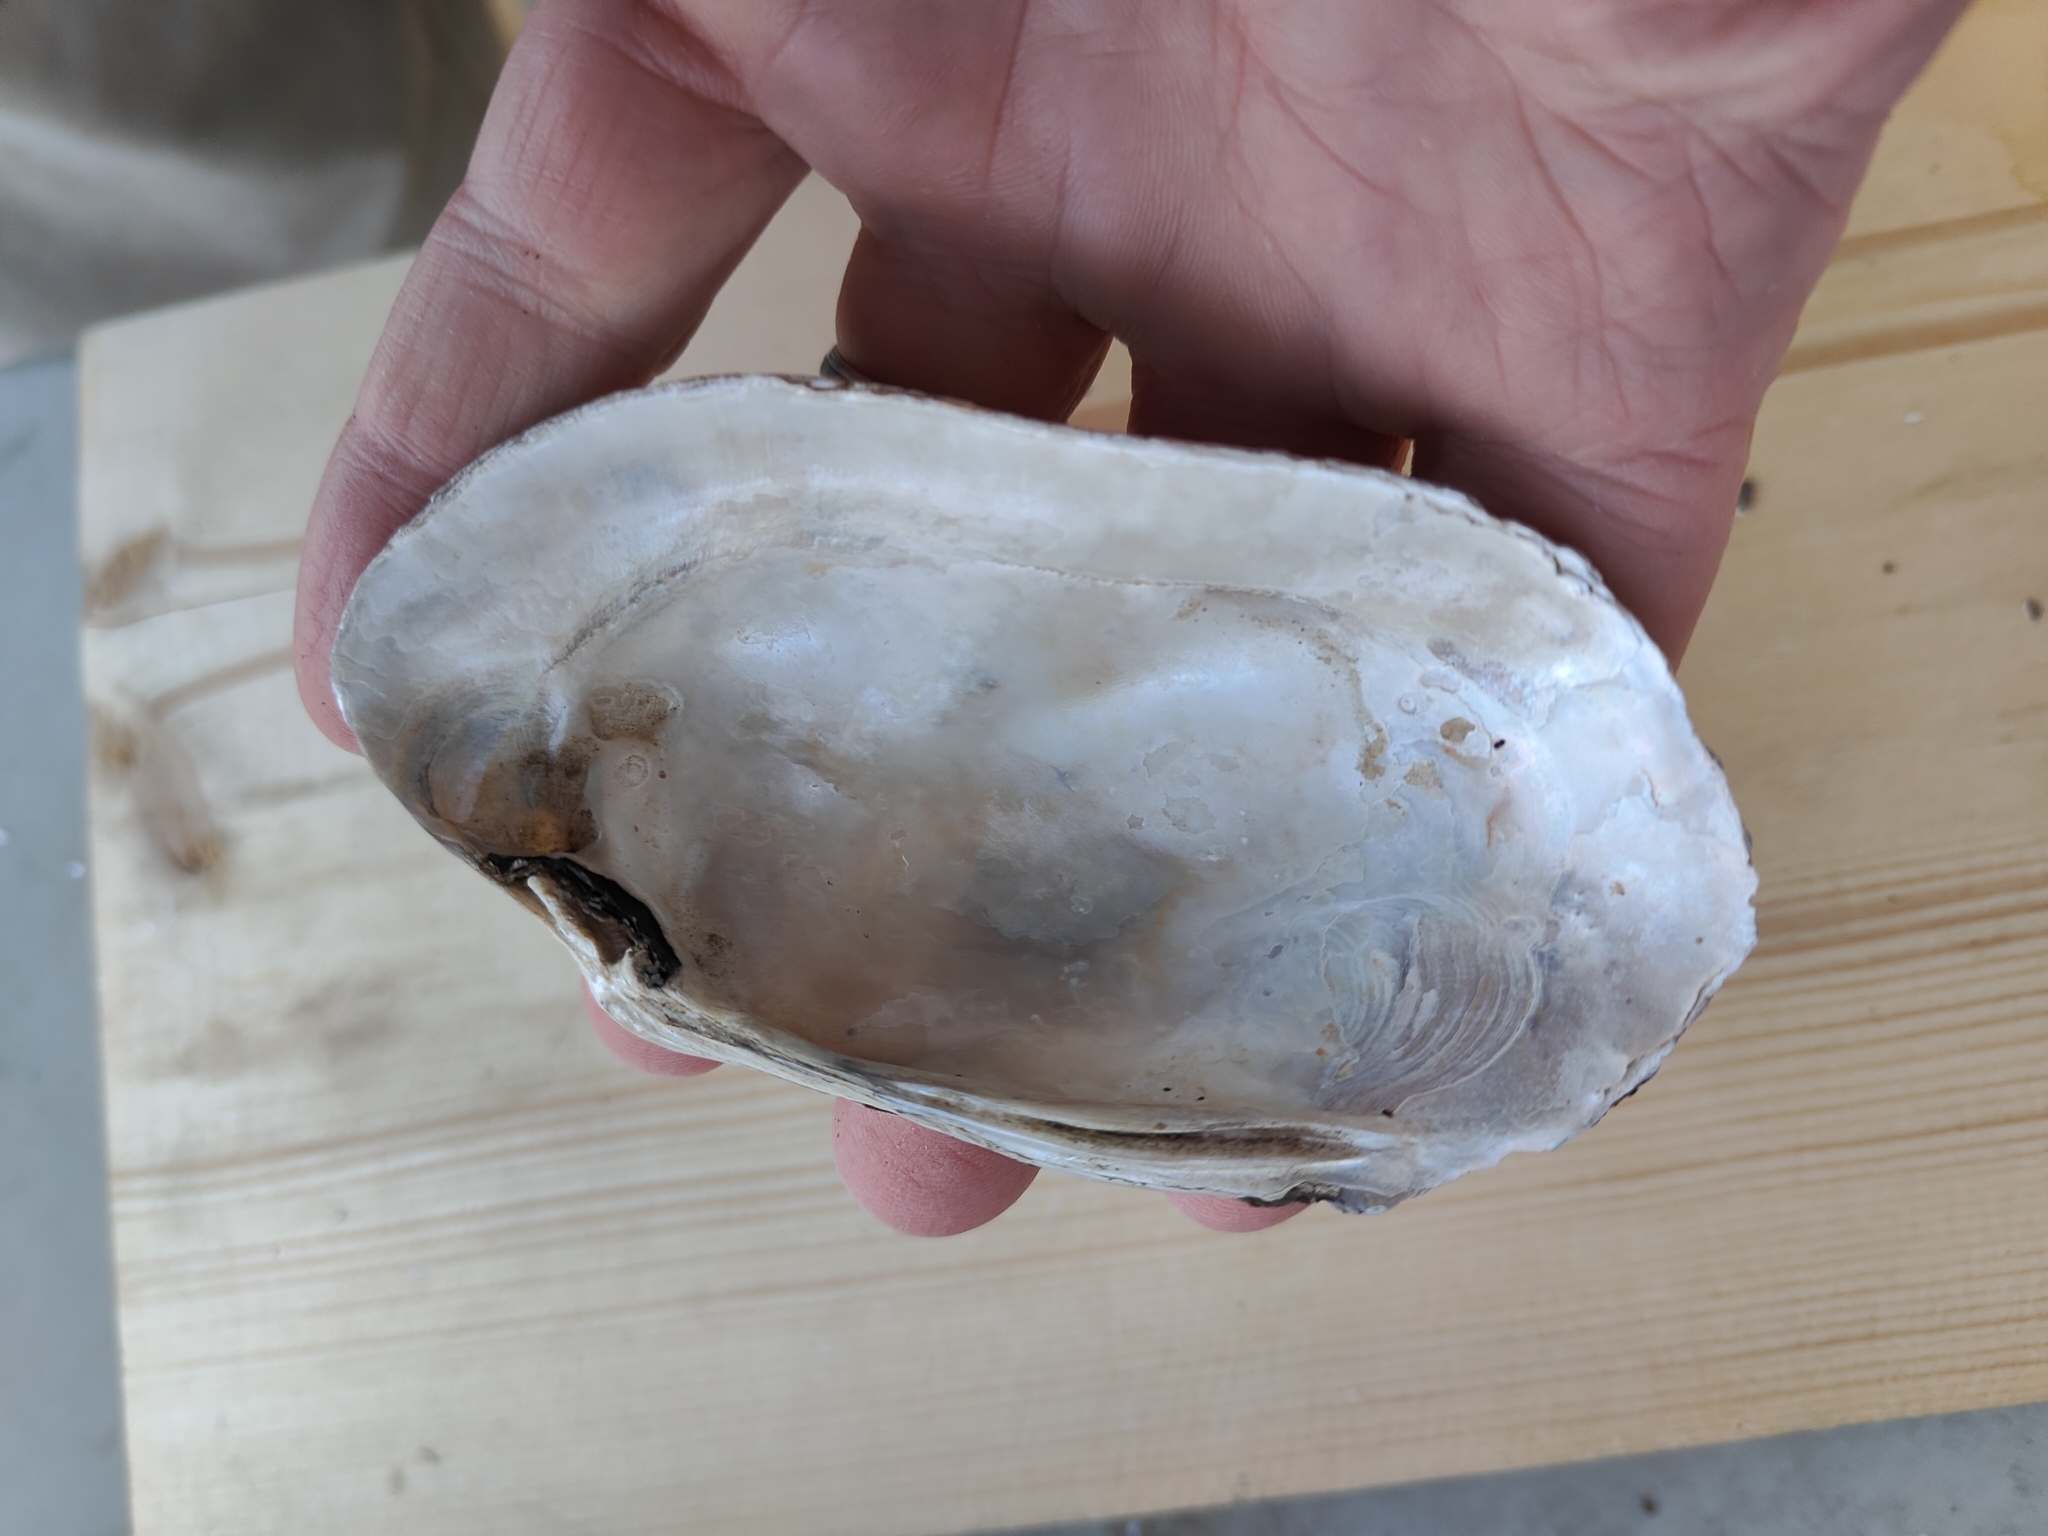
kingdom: Animalia
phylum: Mollusca
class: Bivalvia
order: Unionida
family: Unionidae
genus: Lampsilis
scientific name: Lampsilis siliquoidea
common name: Fatmucket
